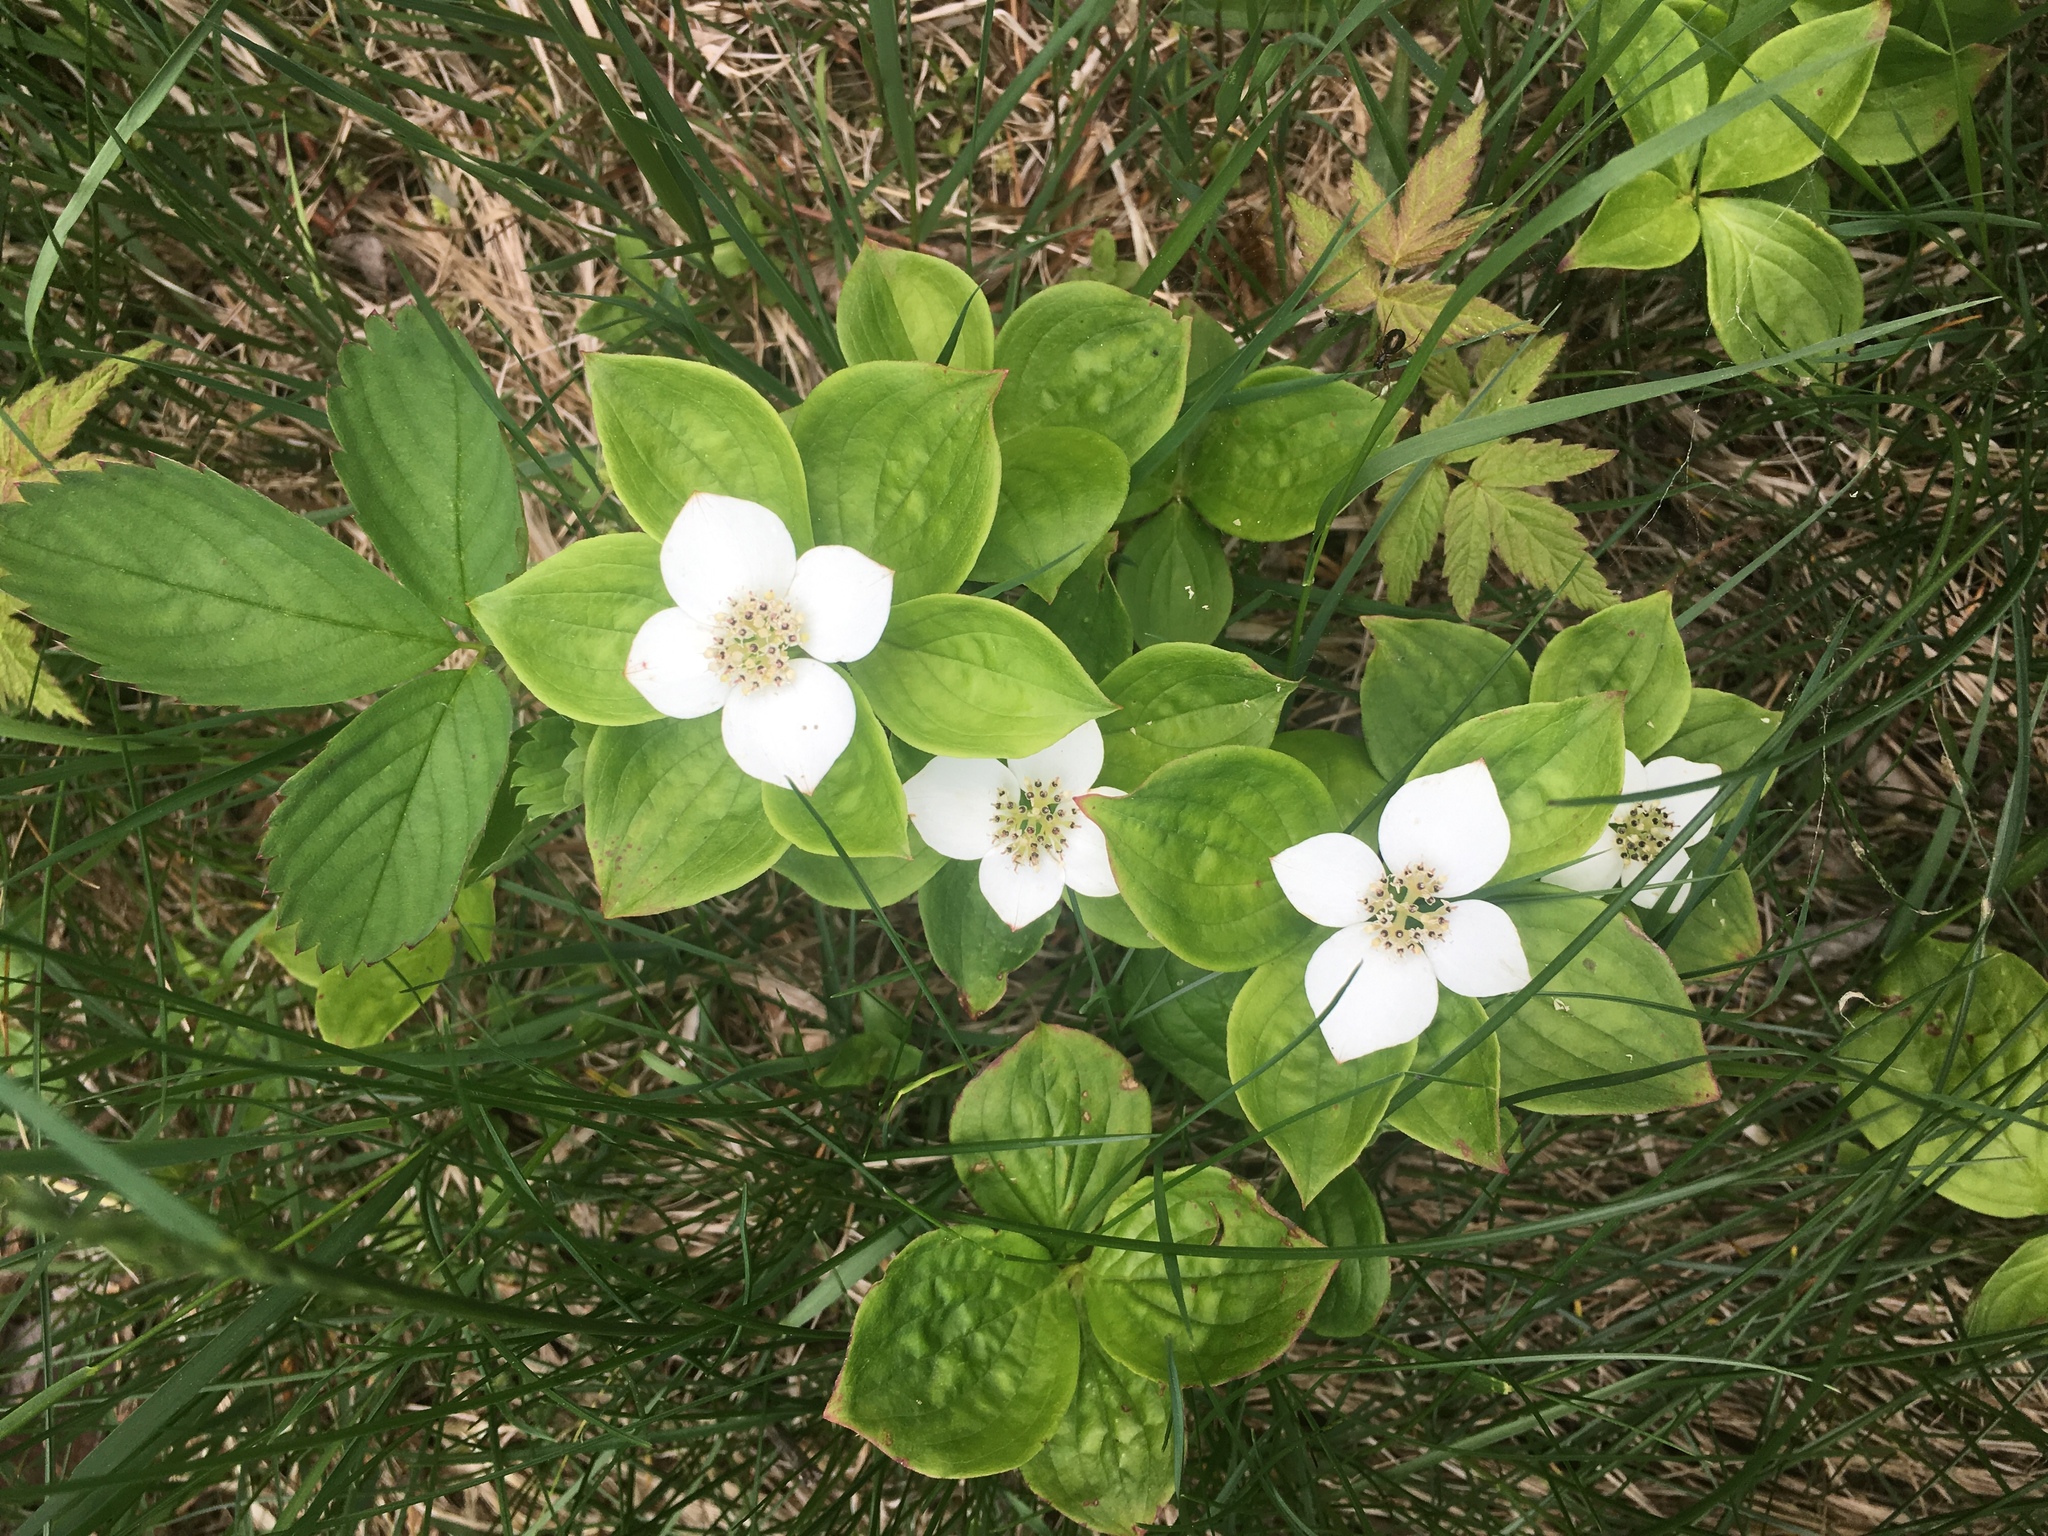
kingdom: Plantae
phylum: Tracheophyta
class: Magnoliopsida
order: Cornales
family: Cornaceae
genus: Cornus
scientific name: Cornus canadensis
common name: Creeping dogwood
